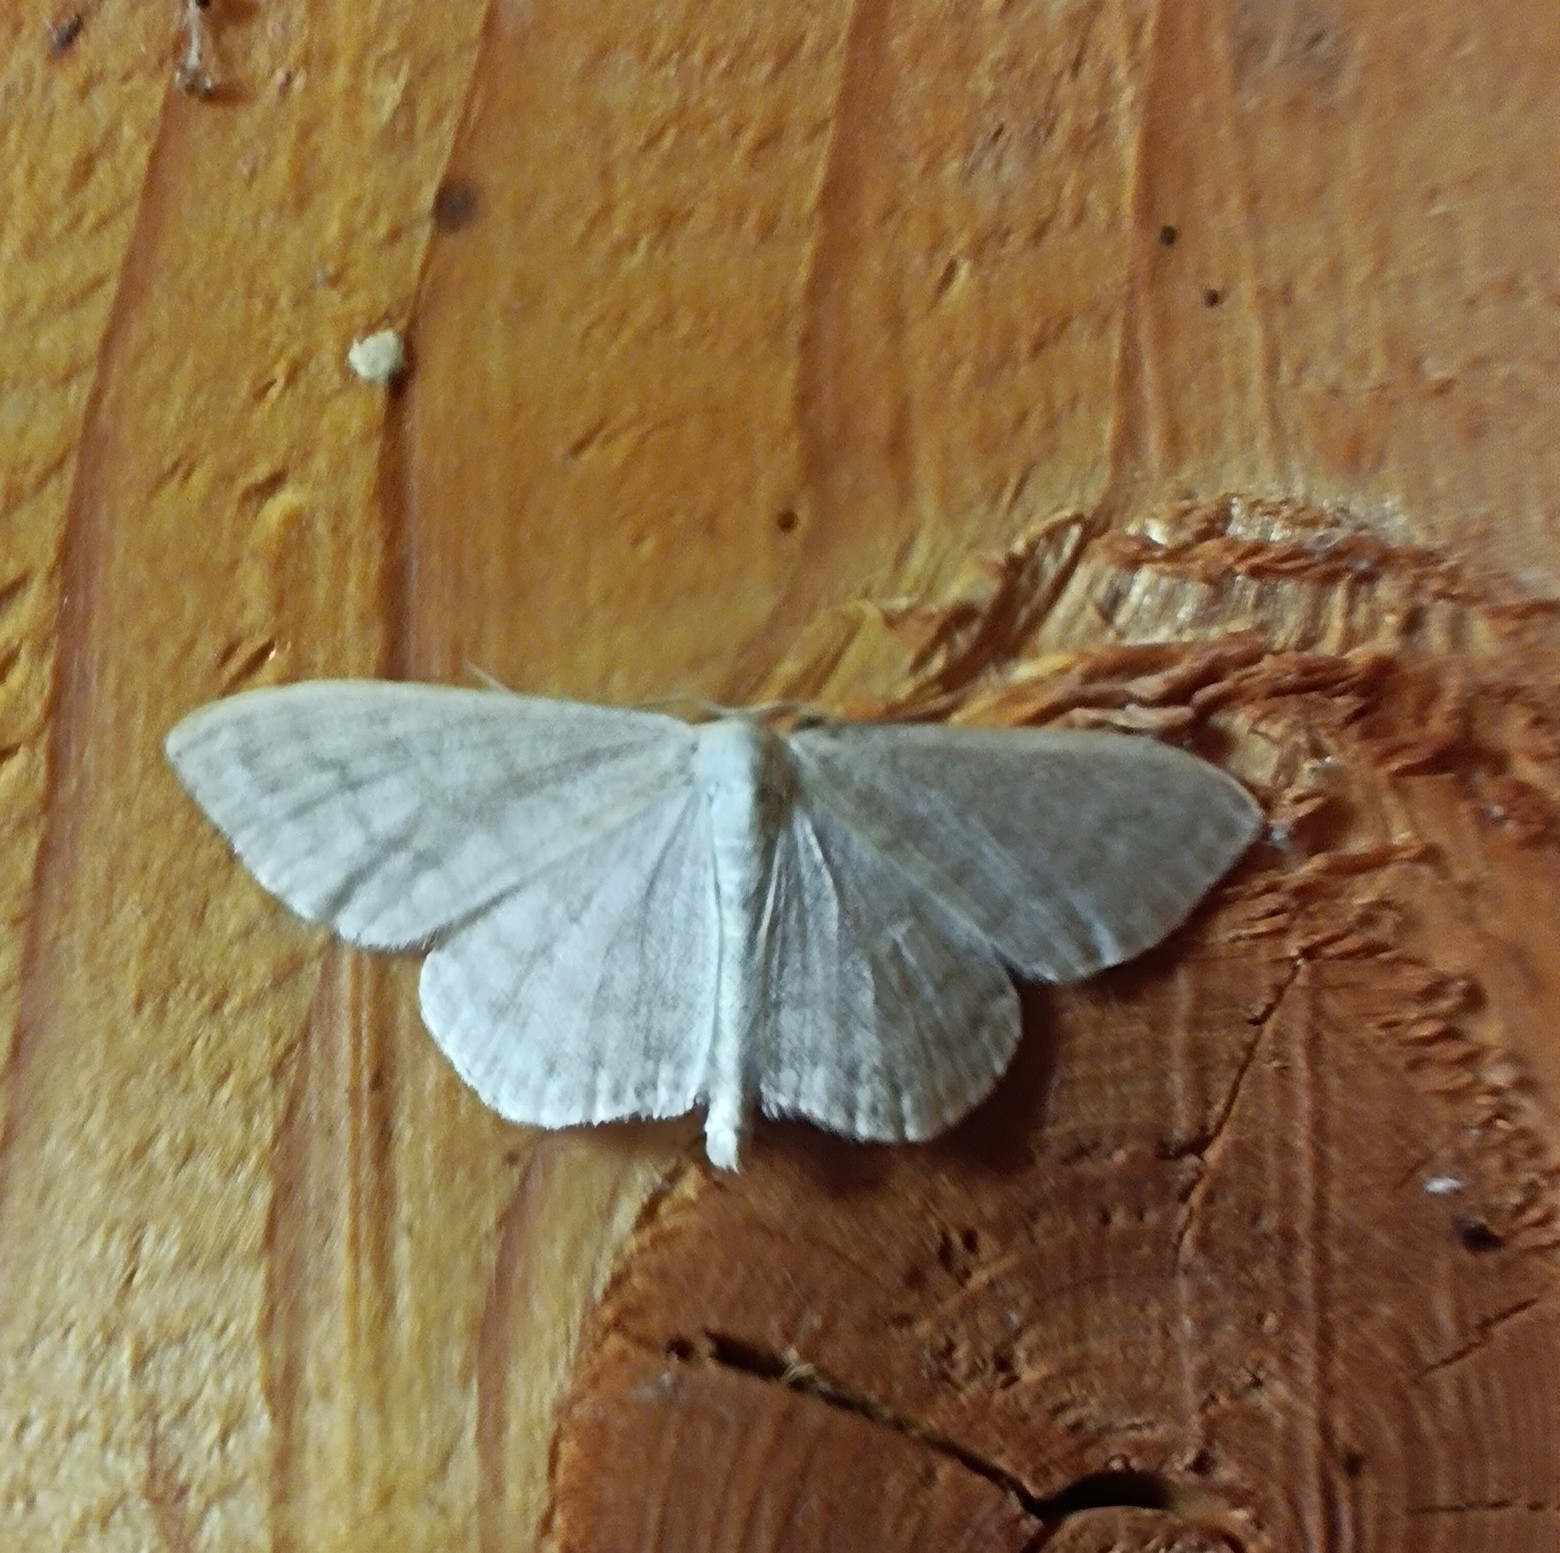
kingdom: Animalia
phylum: Arthropoda
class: Insecta
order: Lepidoptera
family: Geometridae
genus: Scopula
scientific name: Scopula floslactata
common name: Cream wave
